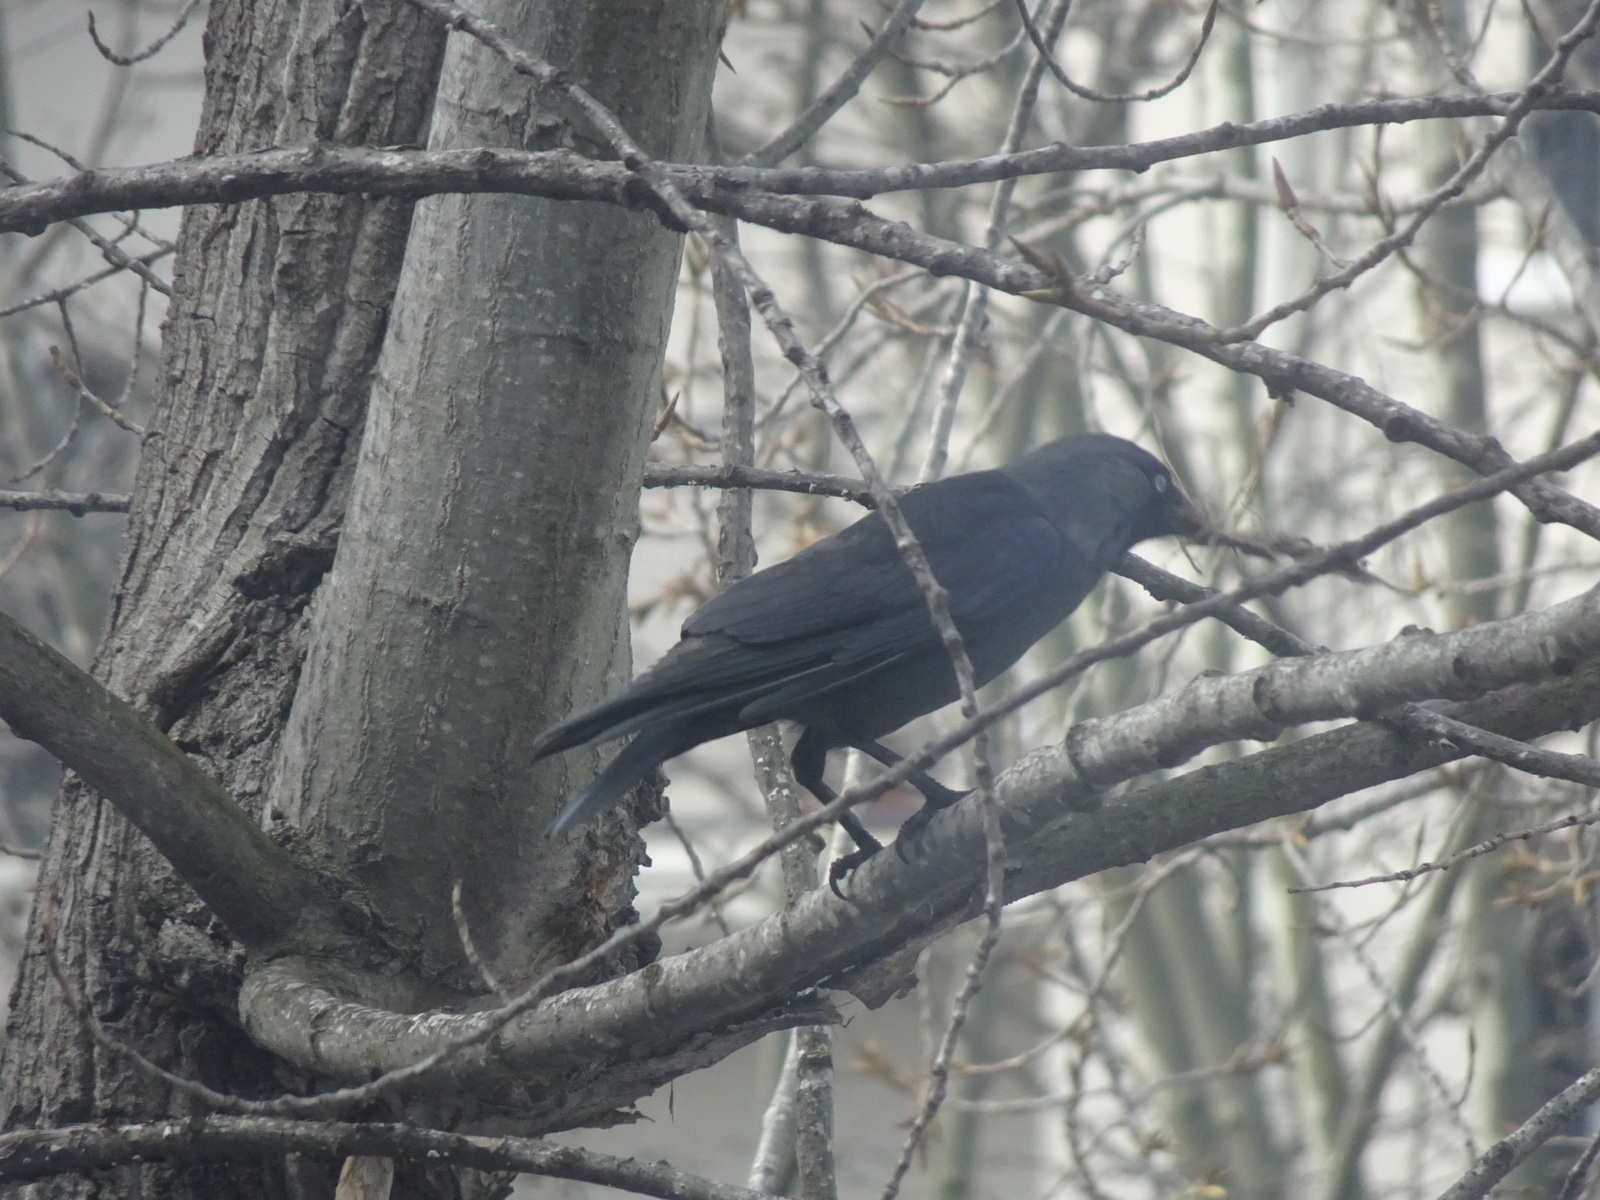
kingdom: Animalia
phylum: Chordata
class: Aves
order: Passeriformes
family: Corvidae
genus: Coloeus
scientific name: Coloeus monedula
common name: Western jackdaw
